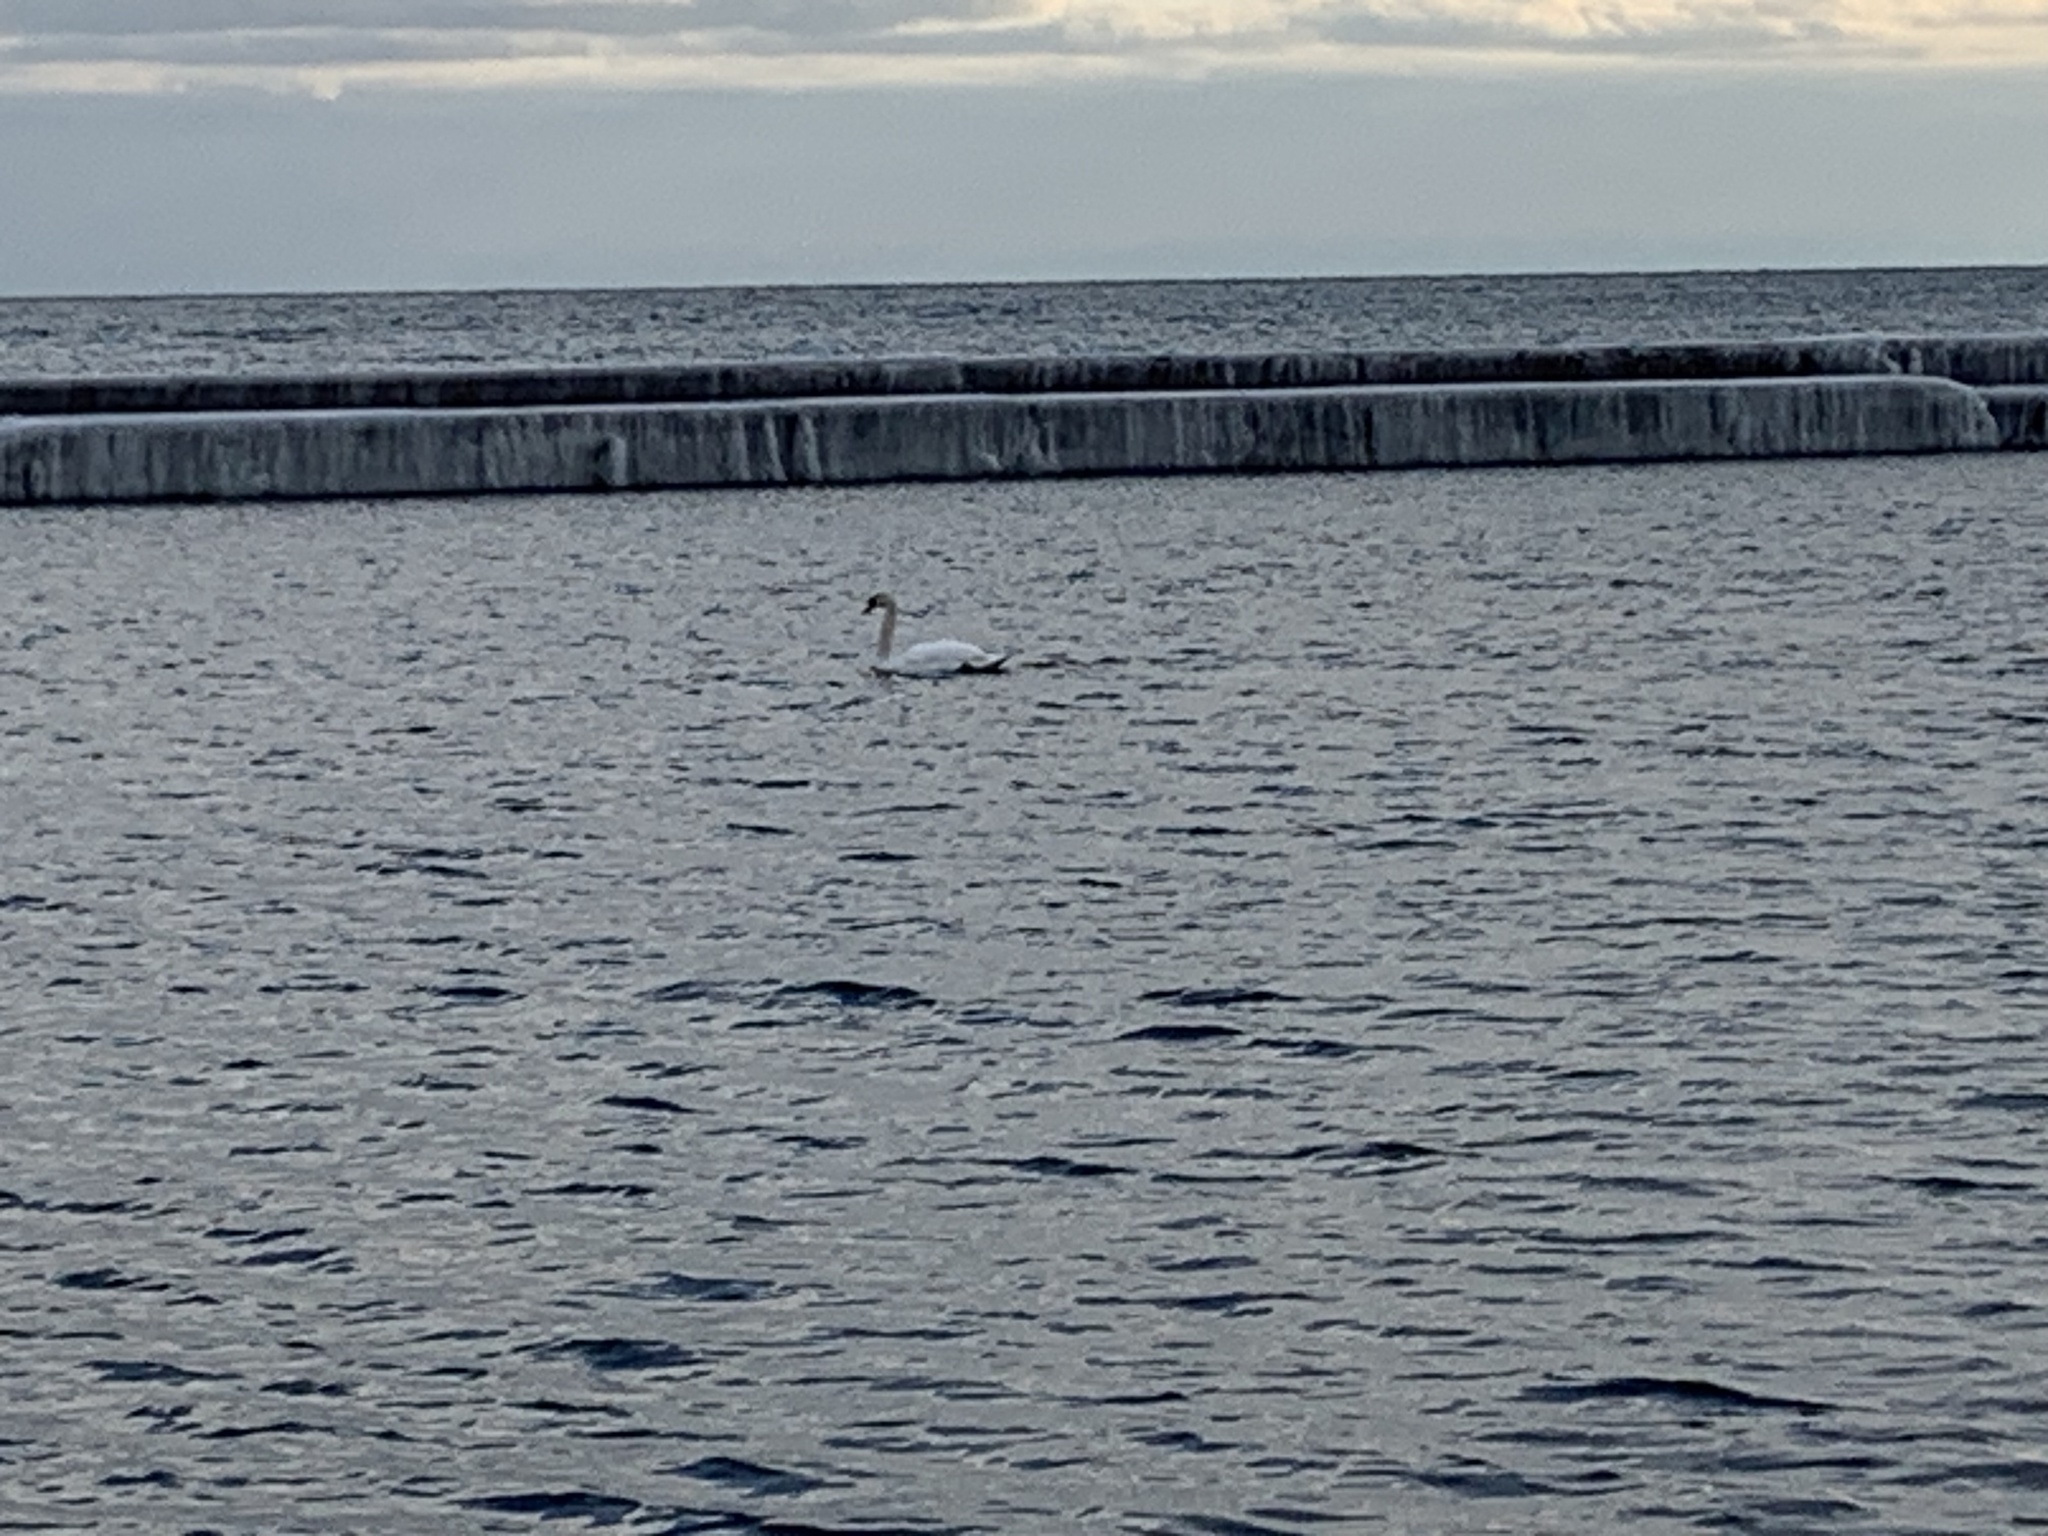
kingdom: Animalia
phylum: Chordata
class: Aves
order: Anseriformes
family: Anatidae
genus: Cygnus
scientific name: Cygnus olor
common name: Mute swan
